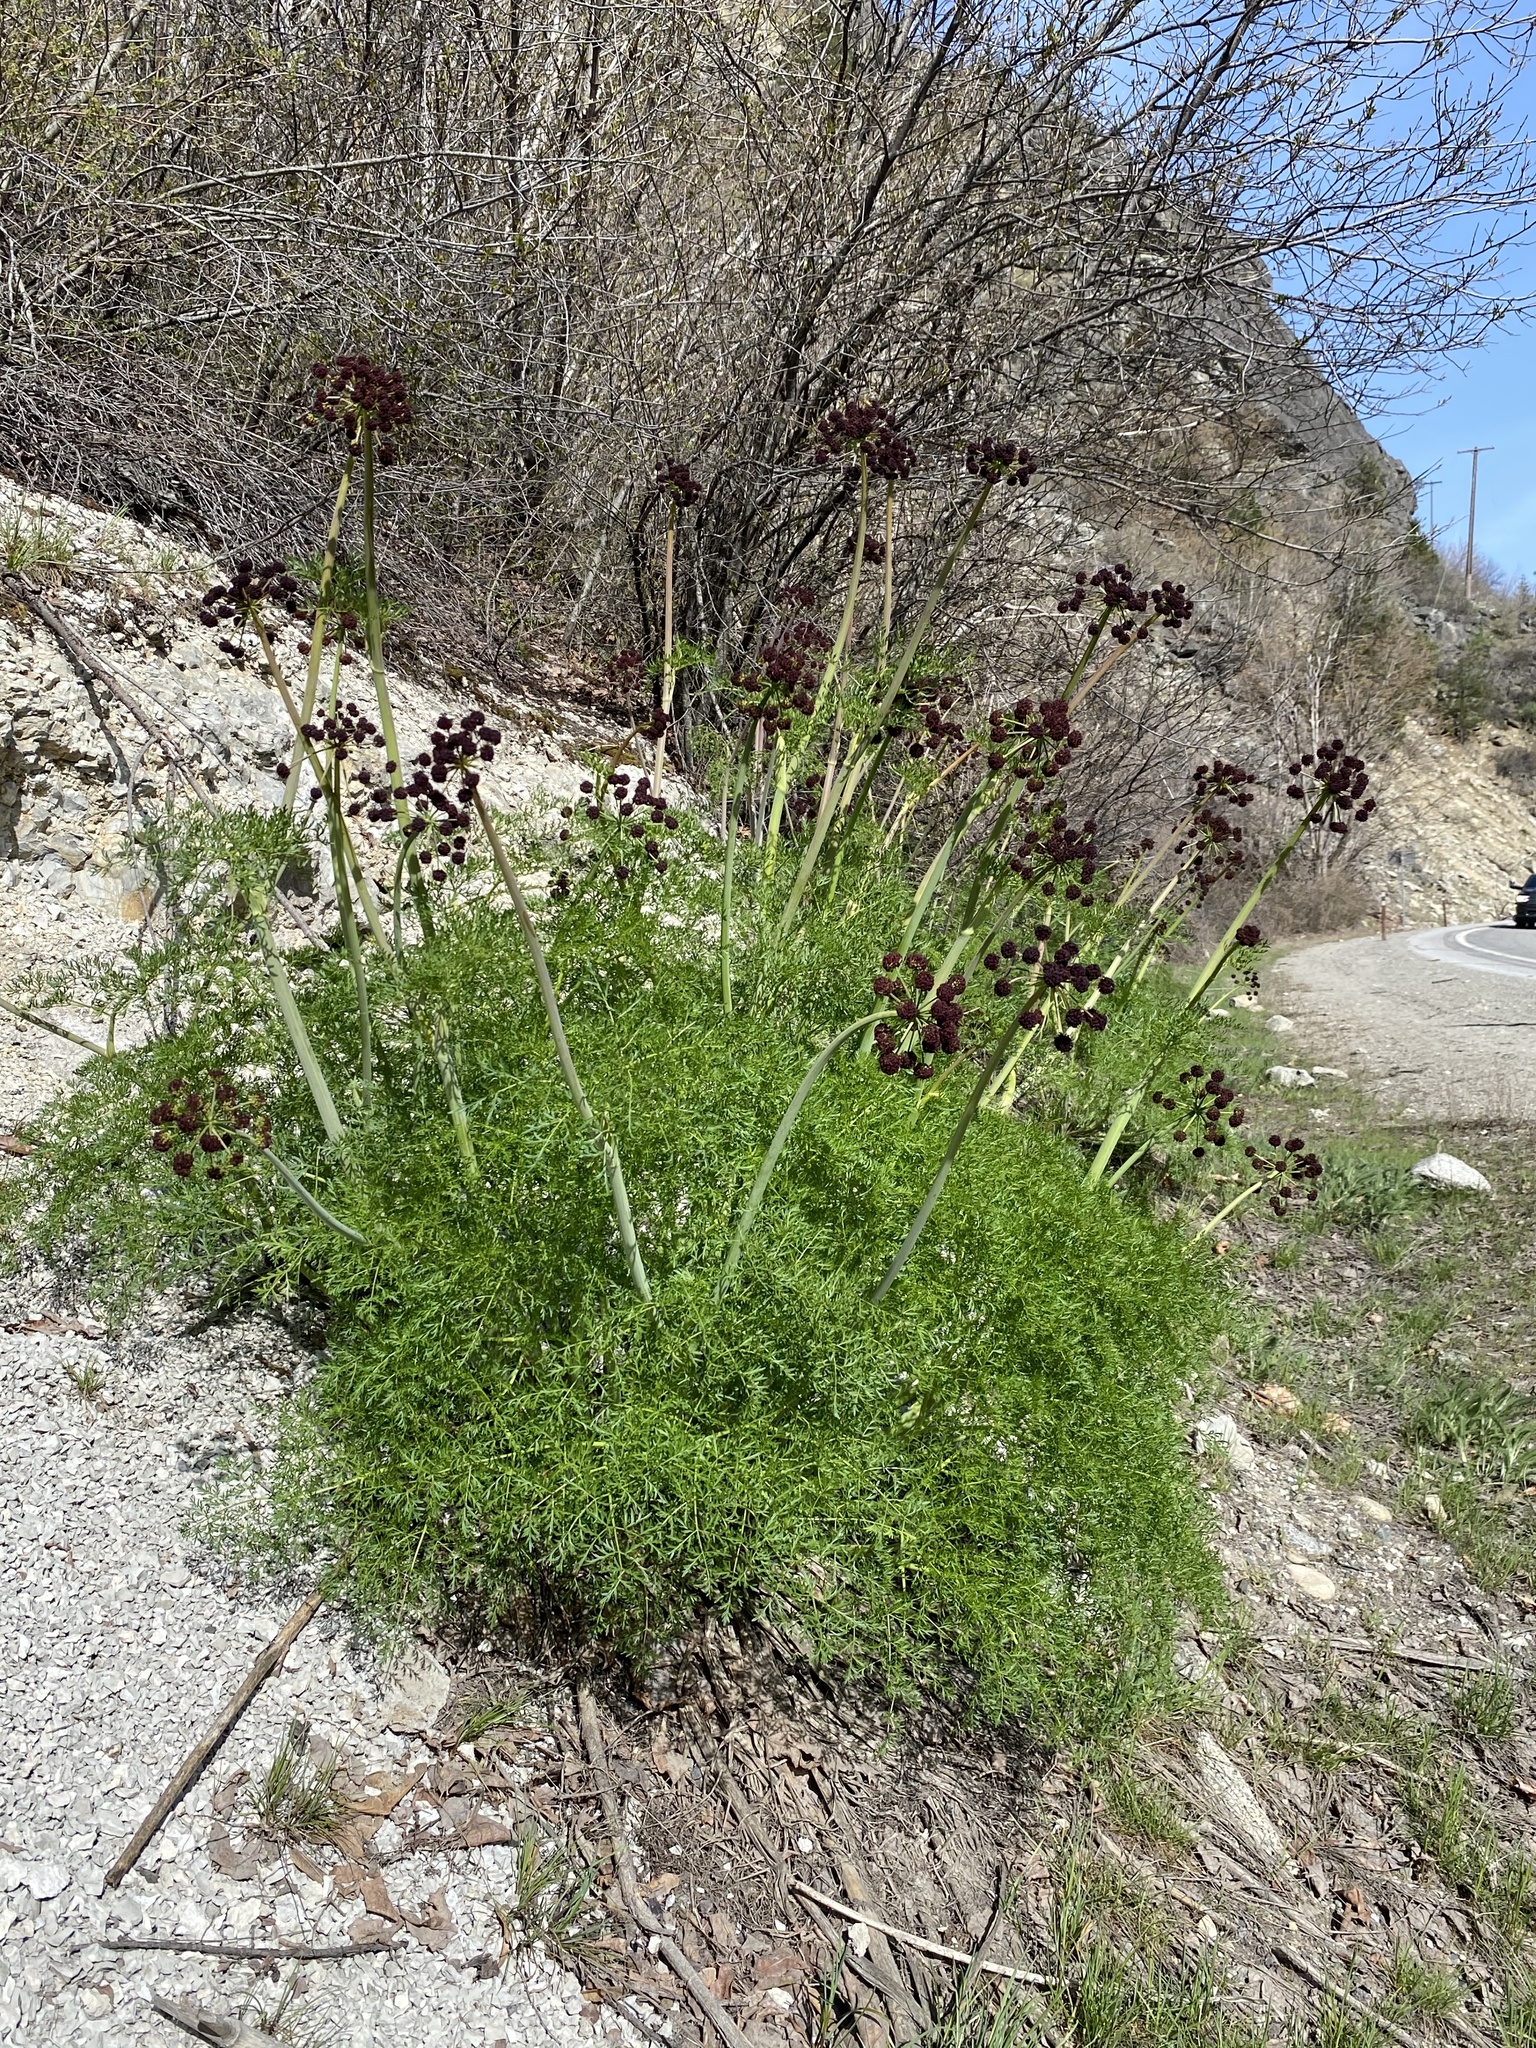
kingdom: Plantae
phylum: Tracheophyta
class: Magnoliopsida
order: Apiales
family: Apiaceae
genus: Lomatium
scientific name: Lomatium dissectum
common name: Lomatium
